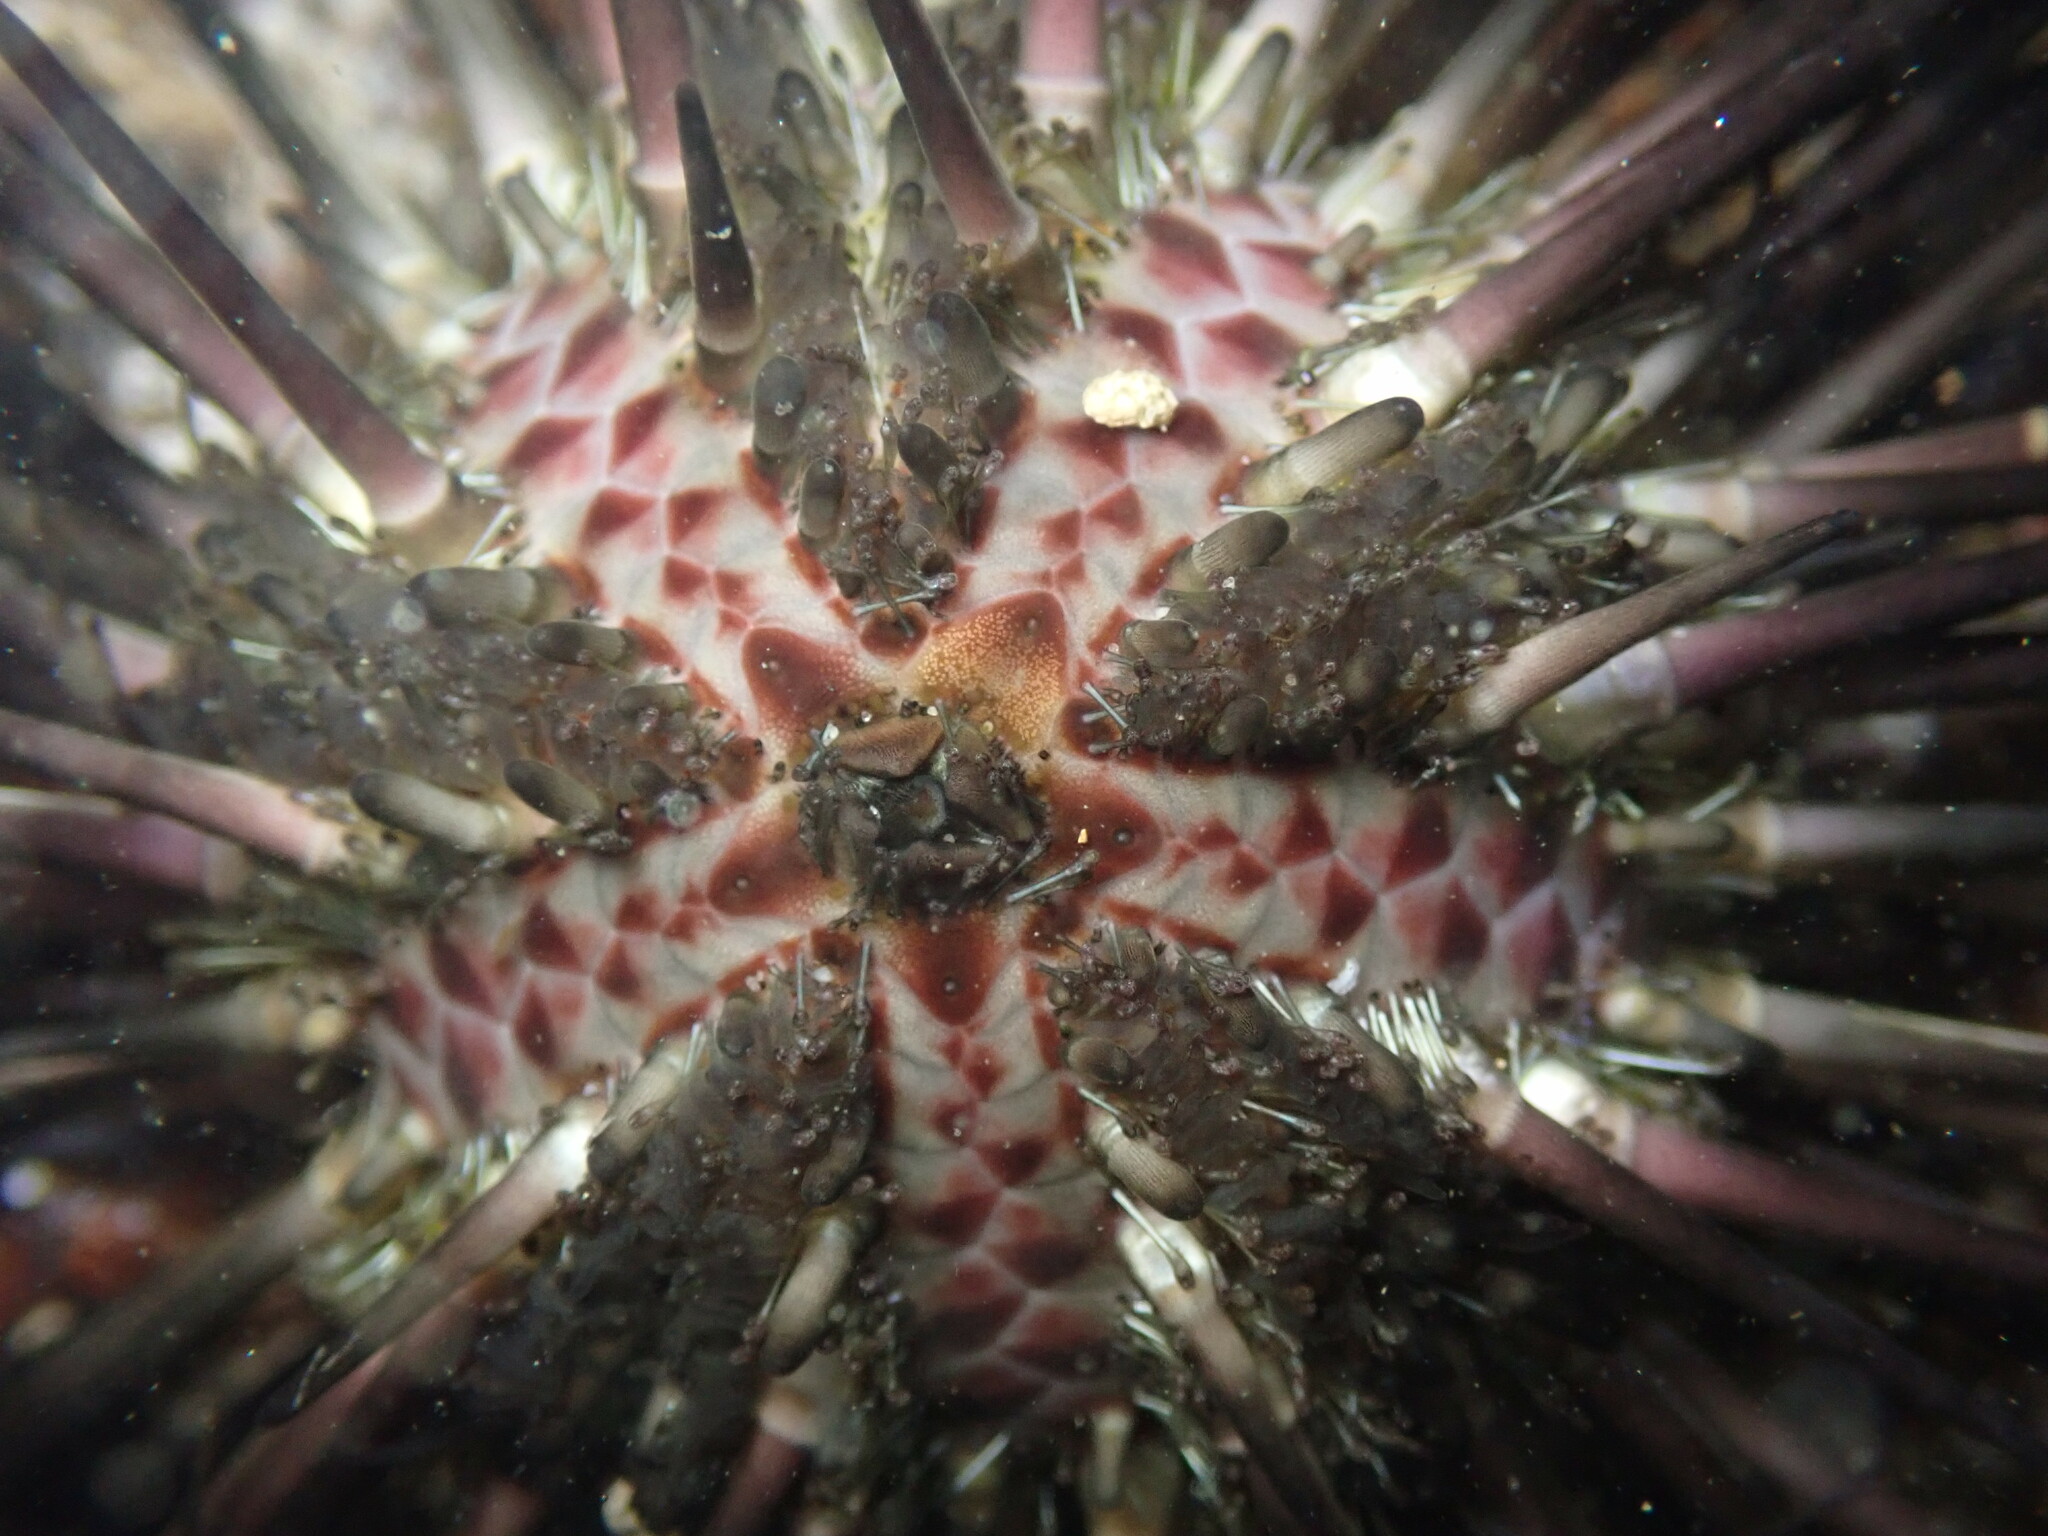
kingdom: Animalia
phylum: Echinodermata
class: Echinoidea
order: Arbacioida
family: Arbaciidae
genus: Arbacia
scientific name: Arbacia stellata
